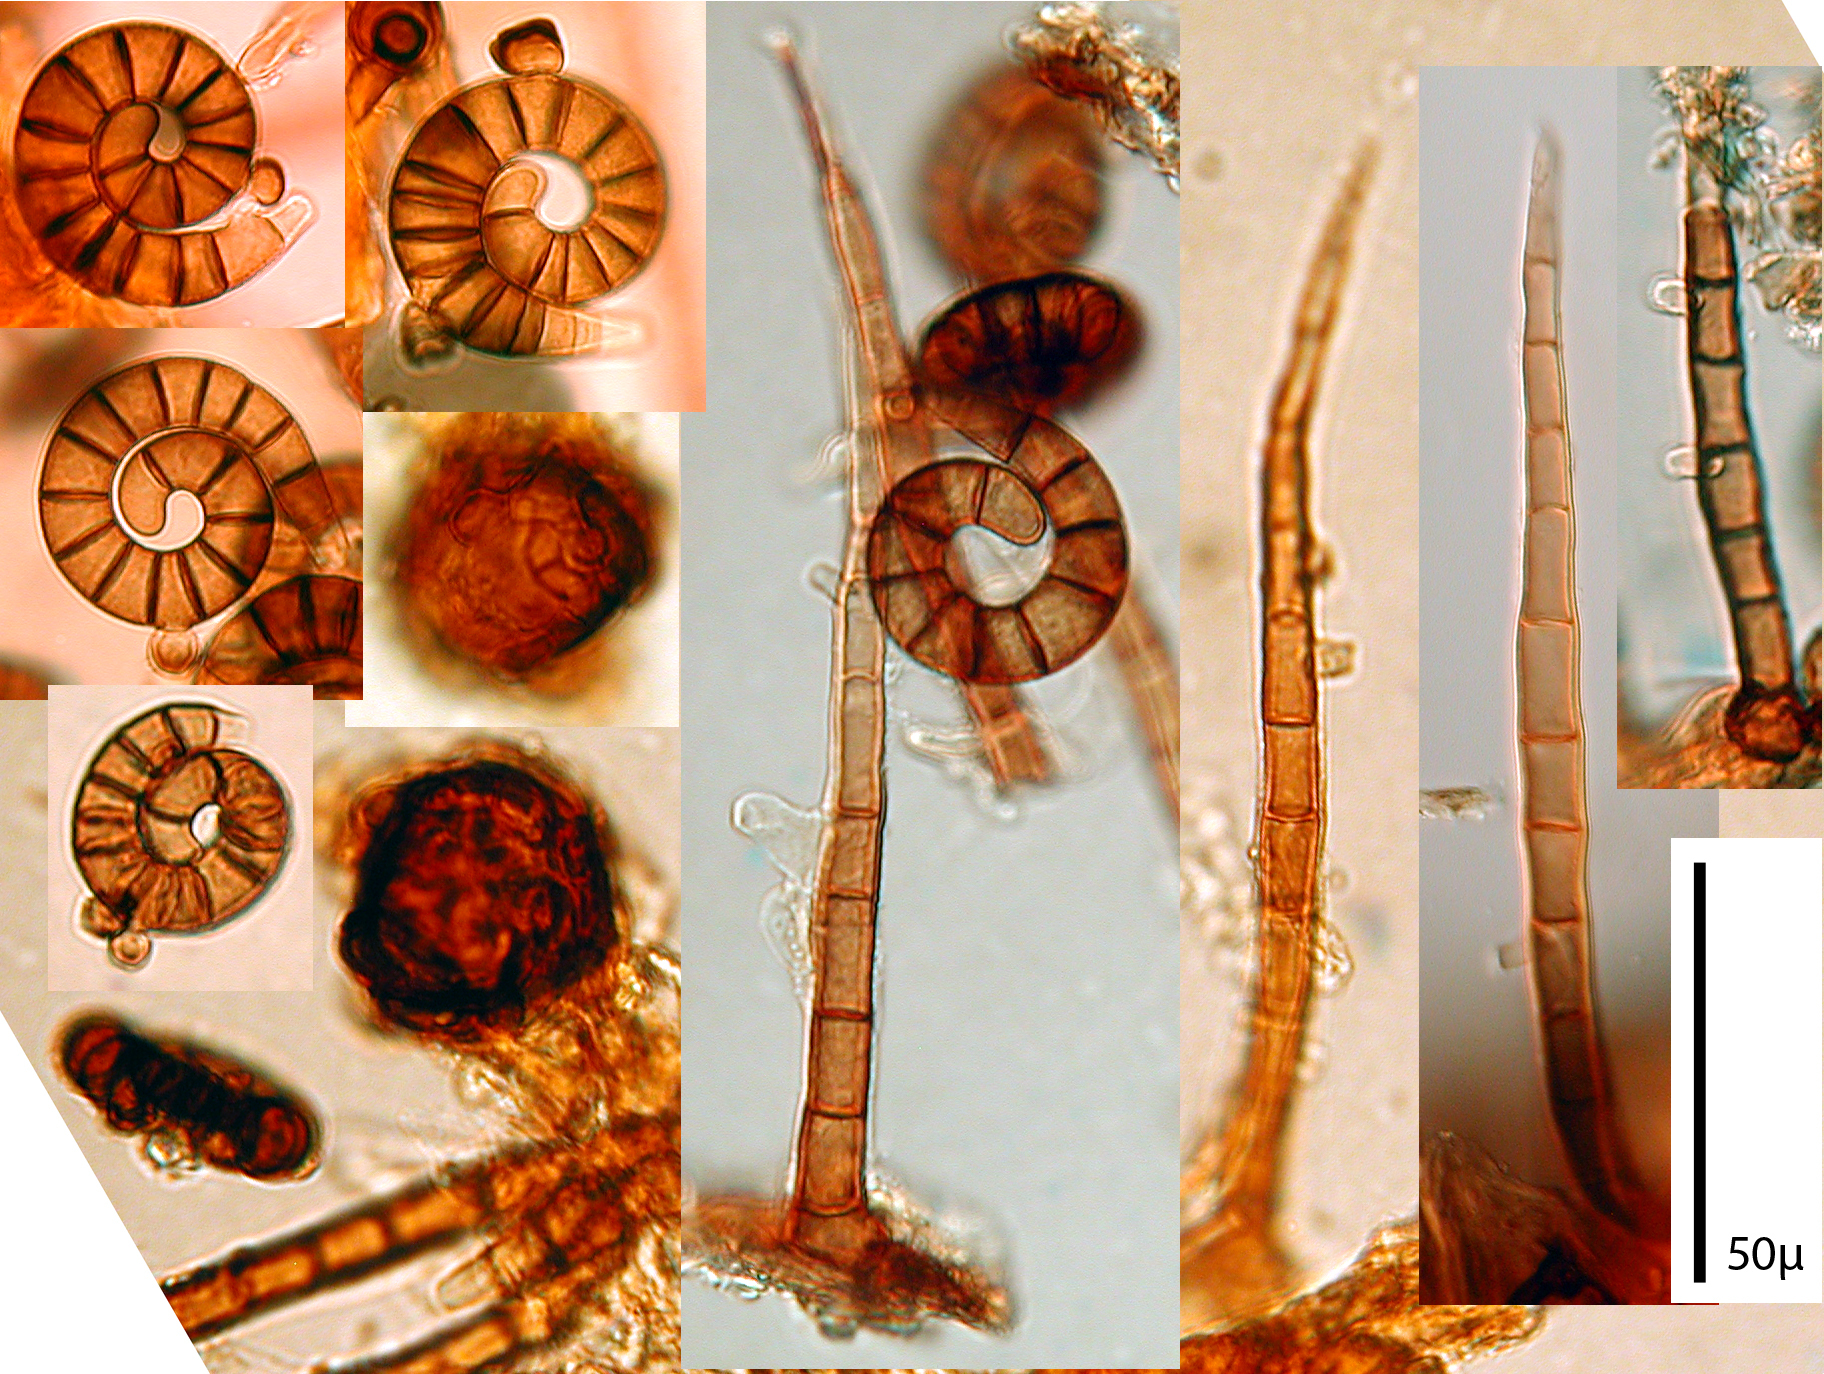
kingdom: Fungi
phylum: Ascomycota
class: Dothideomycetes
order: Tubeufiales
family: Tubeufiaceae
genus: Helicoma
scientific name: Helicoma atroseptatum
